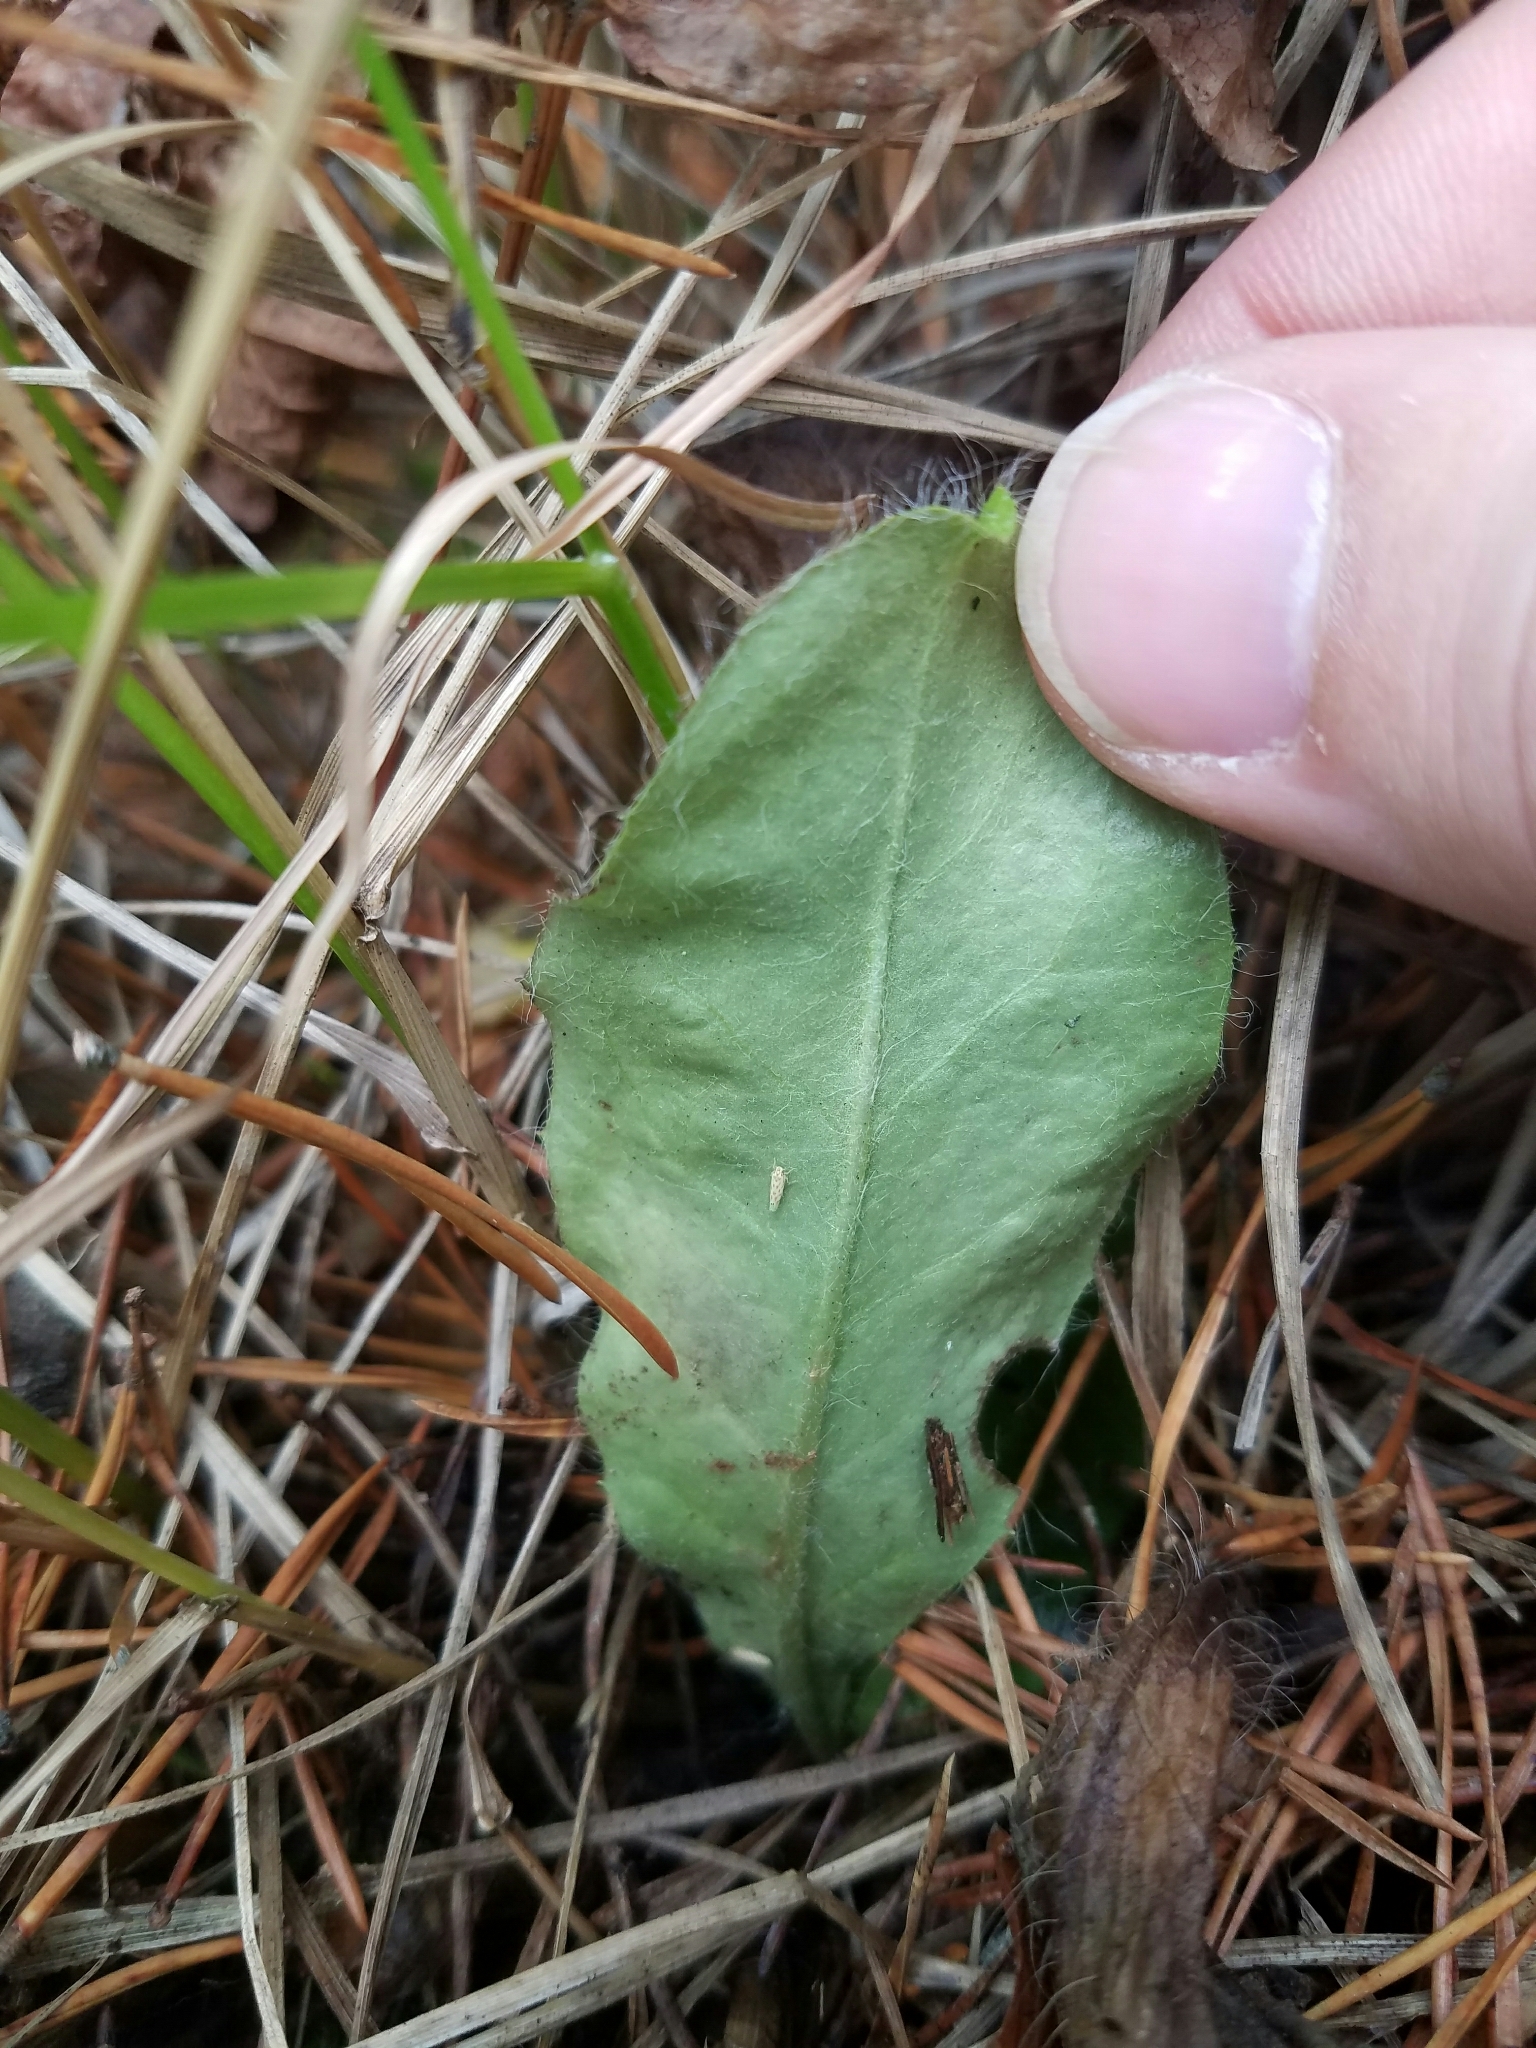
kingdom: Plantae
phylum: Tracheophyta
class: Magnoliopsida
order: Asterales
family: Asteraceae
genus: Pilosella
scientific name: Pilosella officinarum
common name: Mouse-ear hawkweed
